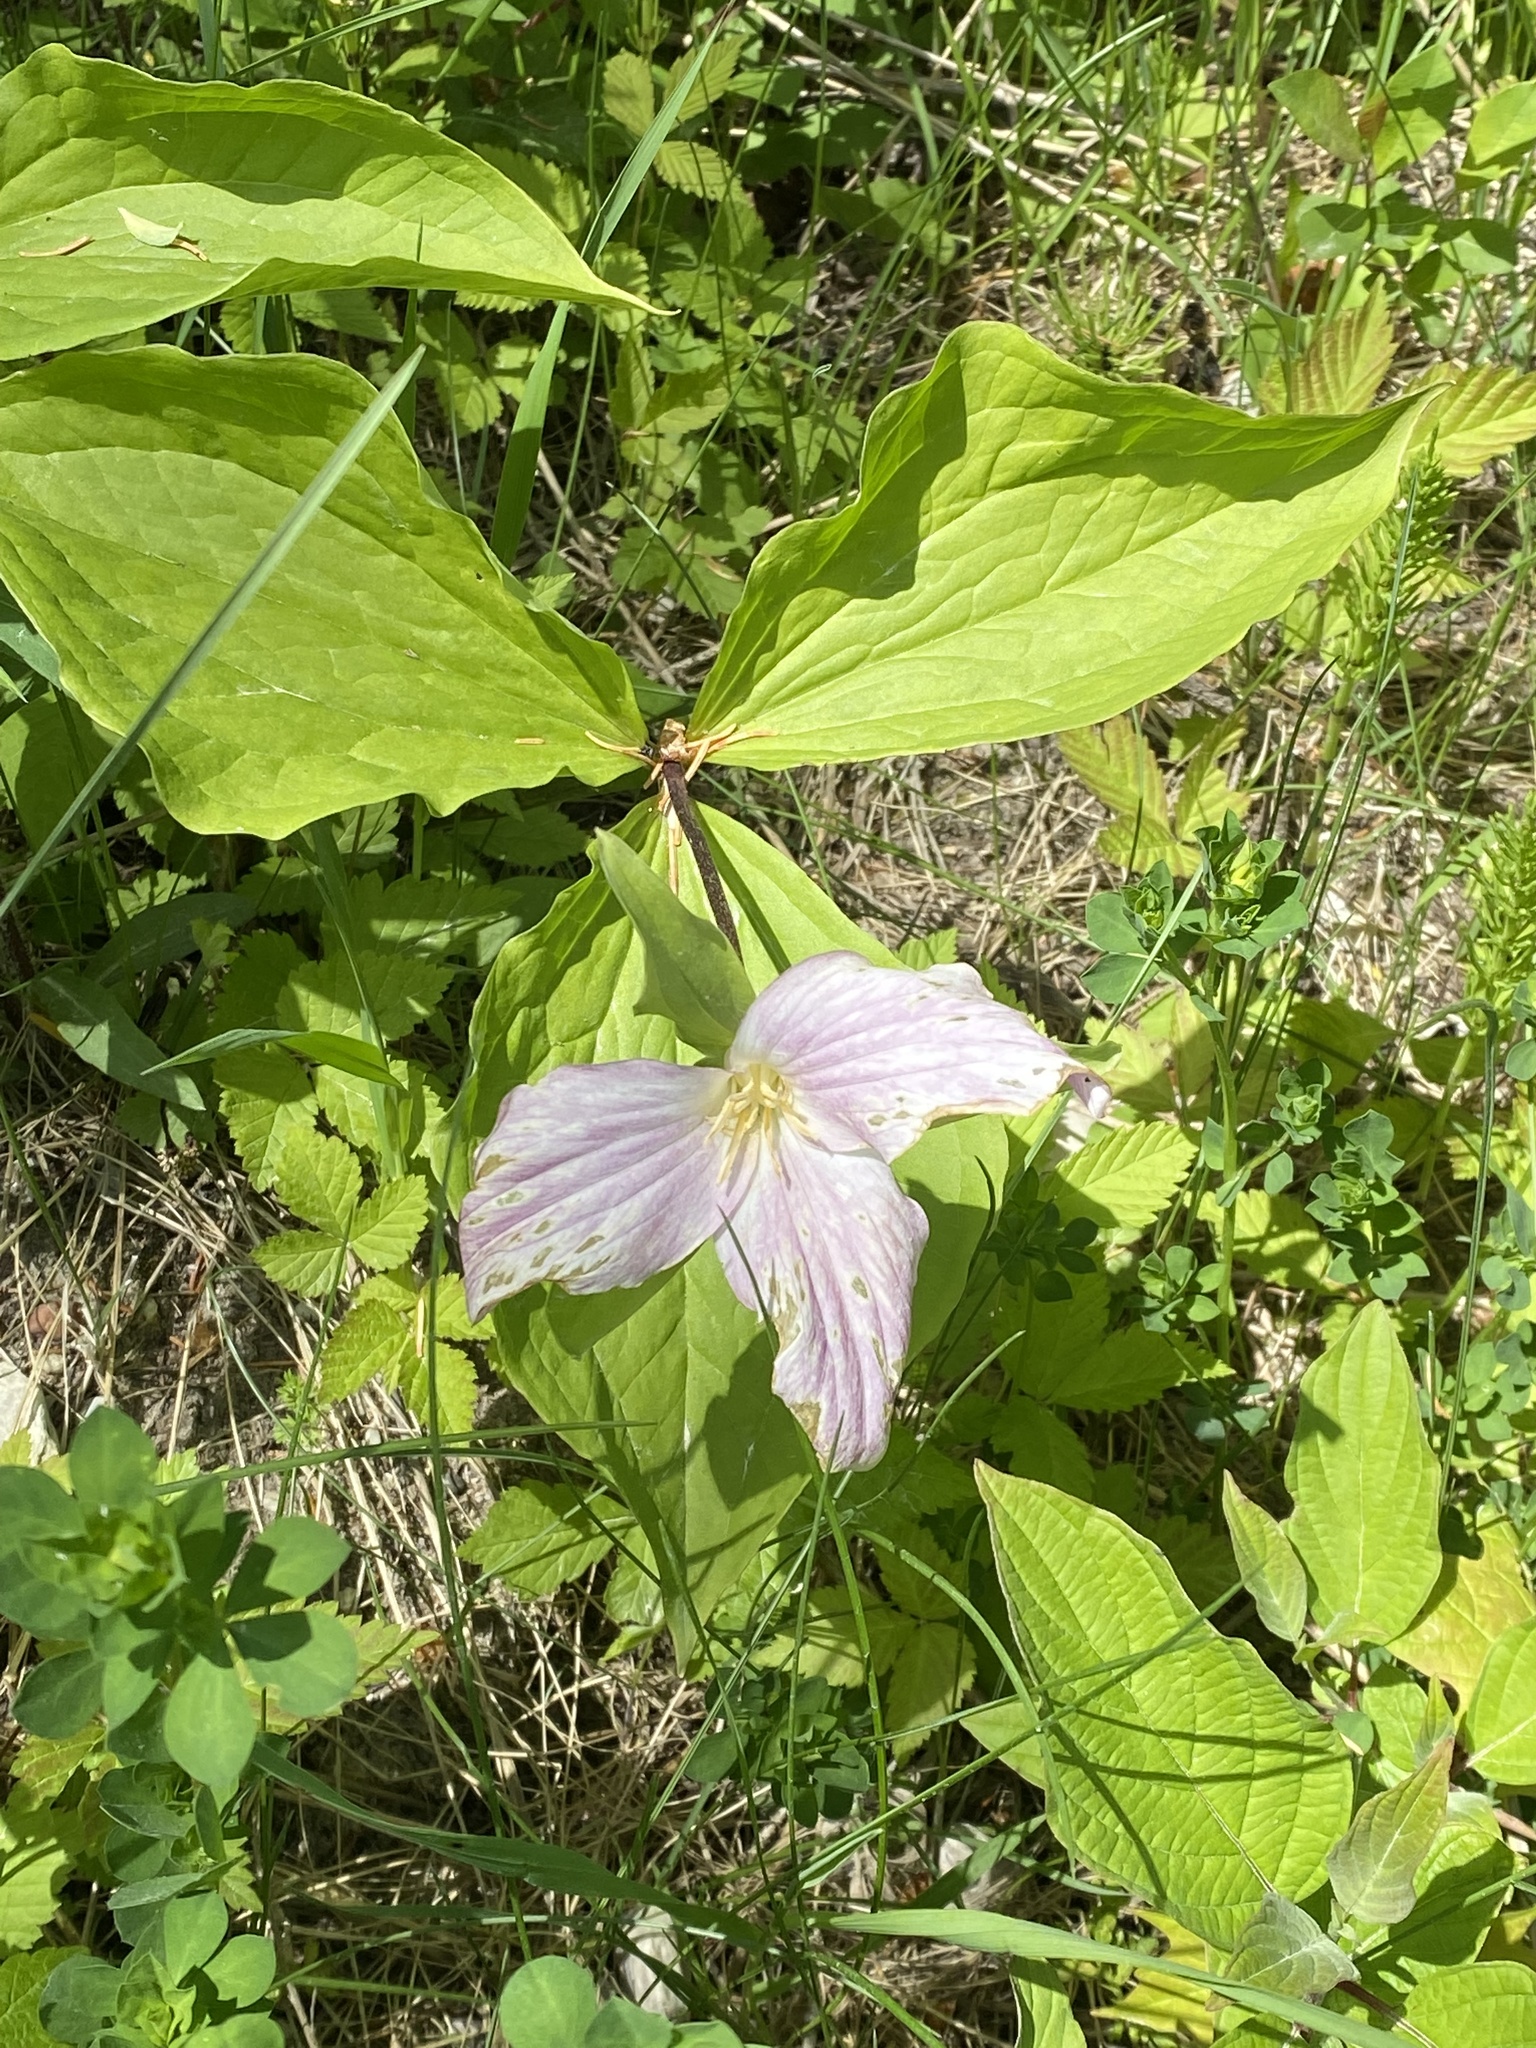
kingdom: Plantae
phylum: Tracheophyta
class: Liliopsida
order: Liliales
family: Melanthiaceae
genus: Trillium
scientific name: Trillium grandiflorum
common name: Great white trillium
